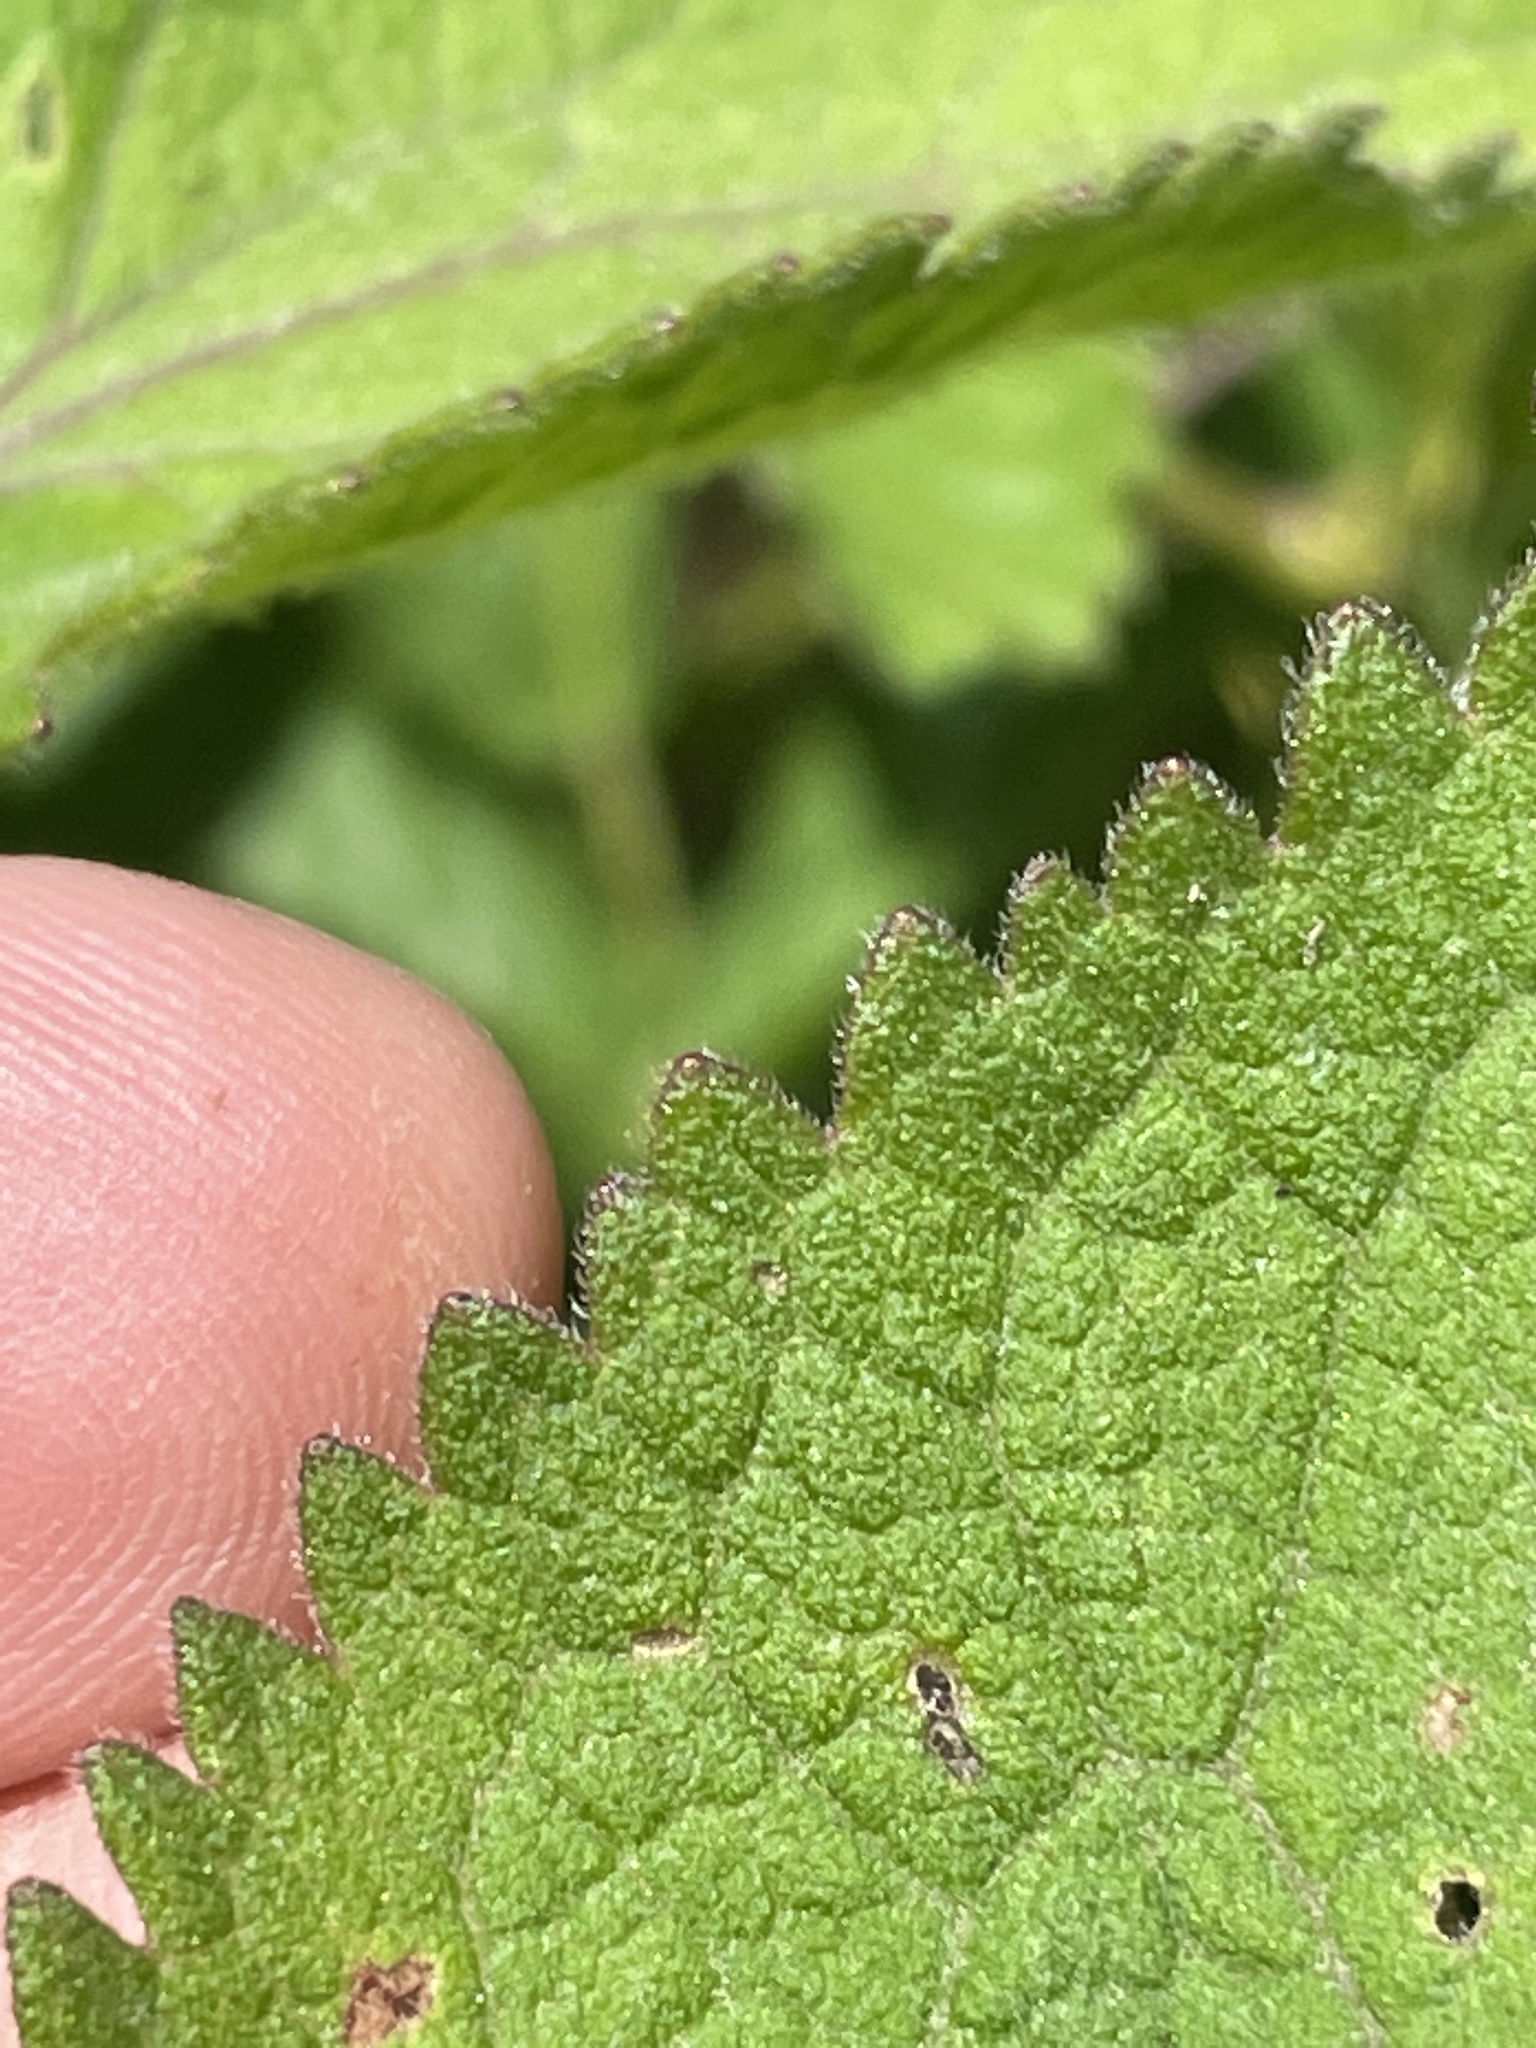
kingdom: Plantae
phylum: Tracheophyta
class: Magnoliopsida
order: Asterales
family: Asteraceae
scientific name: Asteraceae
